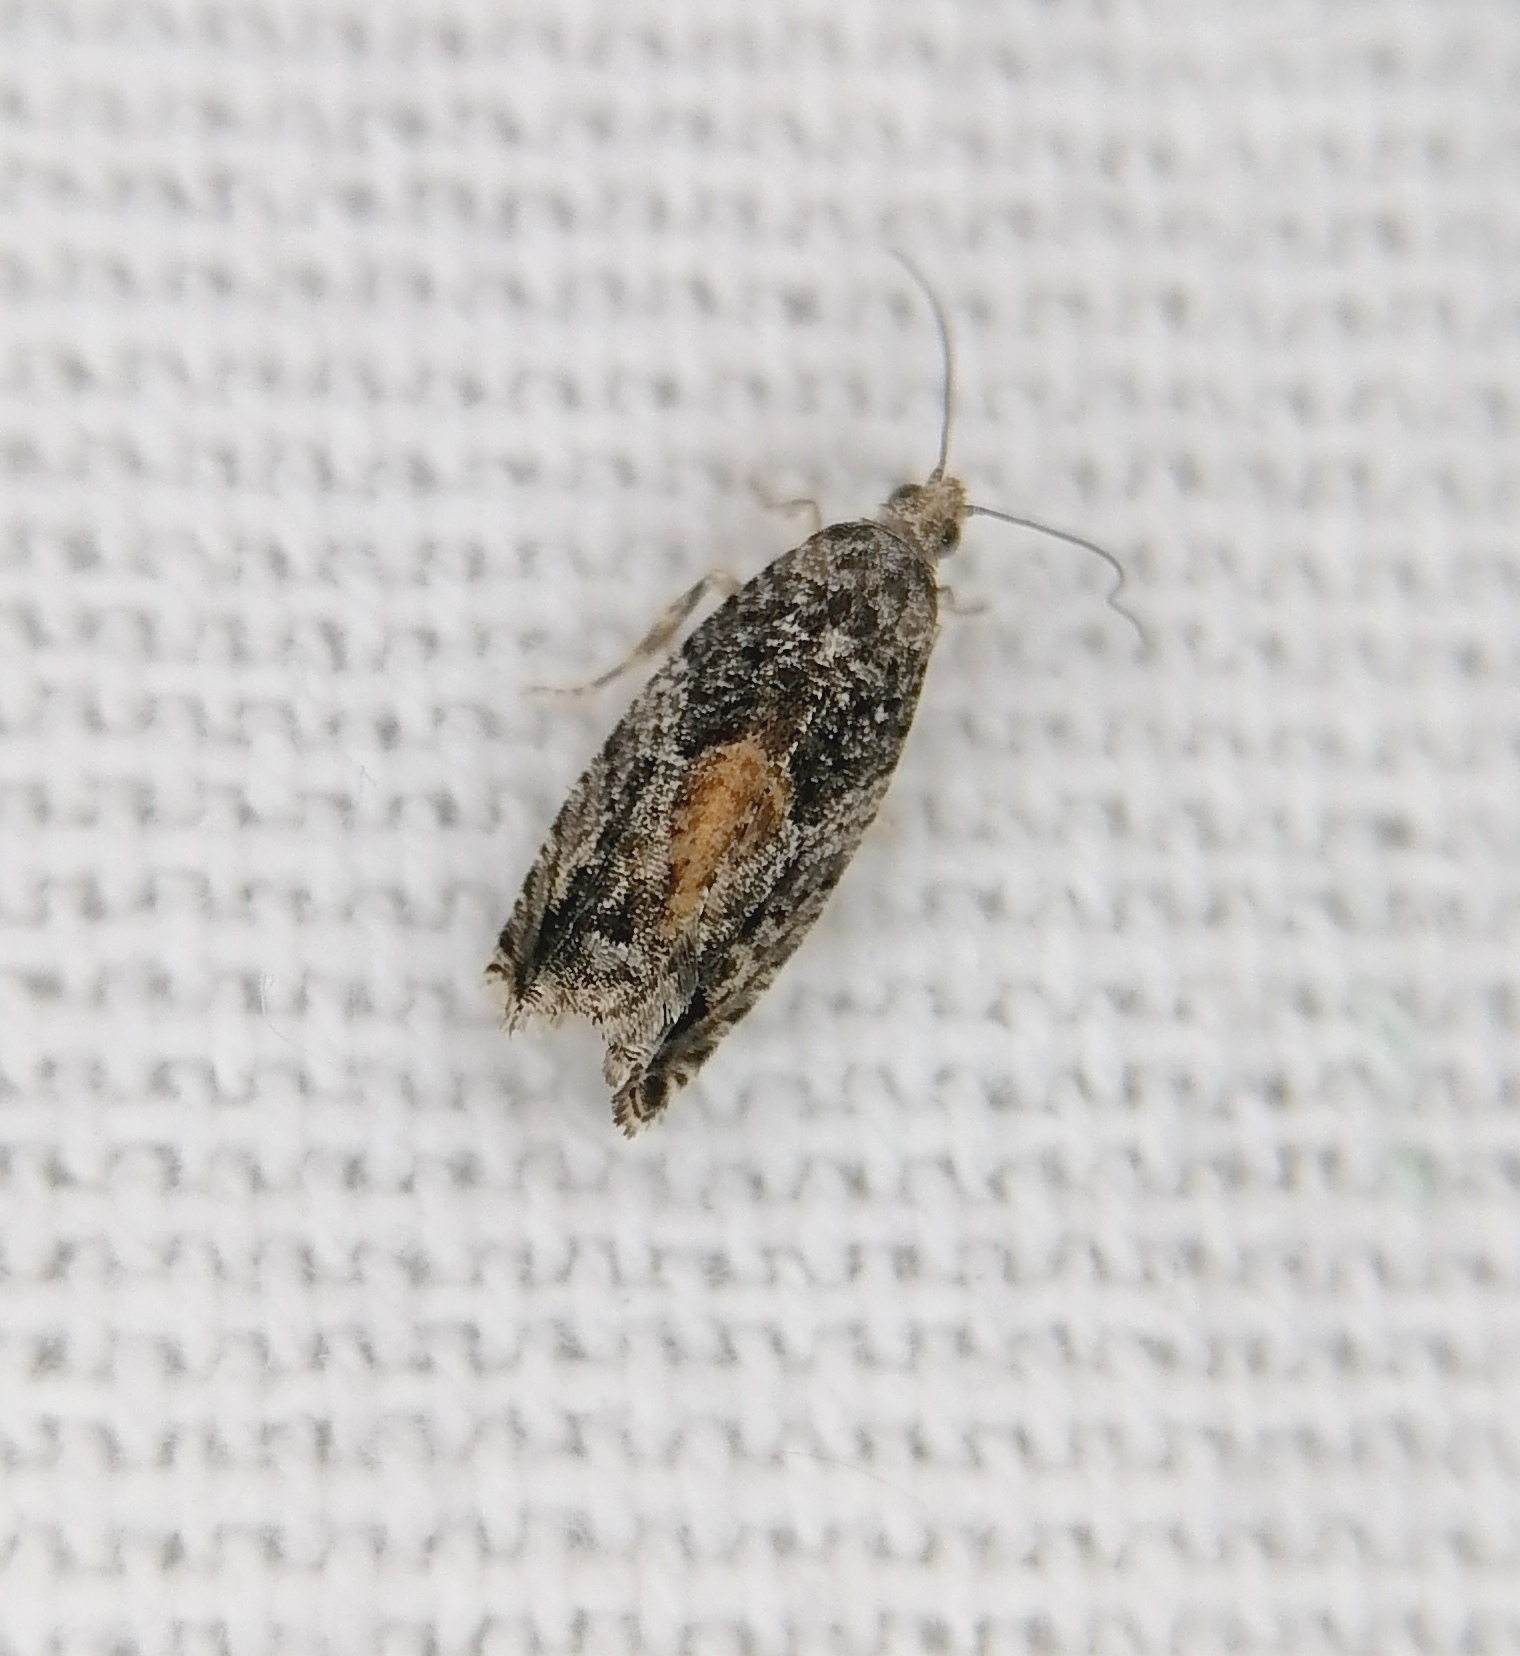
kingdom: Animalia
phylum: Arthropoda
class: Insecta
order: Lepidoptera
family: Tortricidae
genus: Epinotia
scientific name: Epinotia nisella
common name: Grey poplar bell
